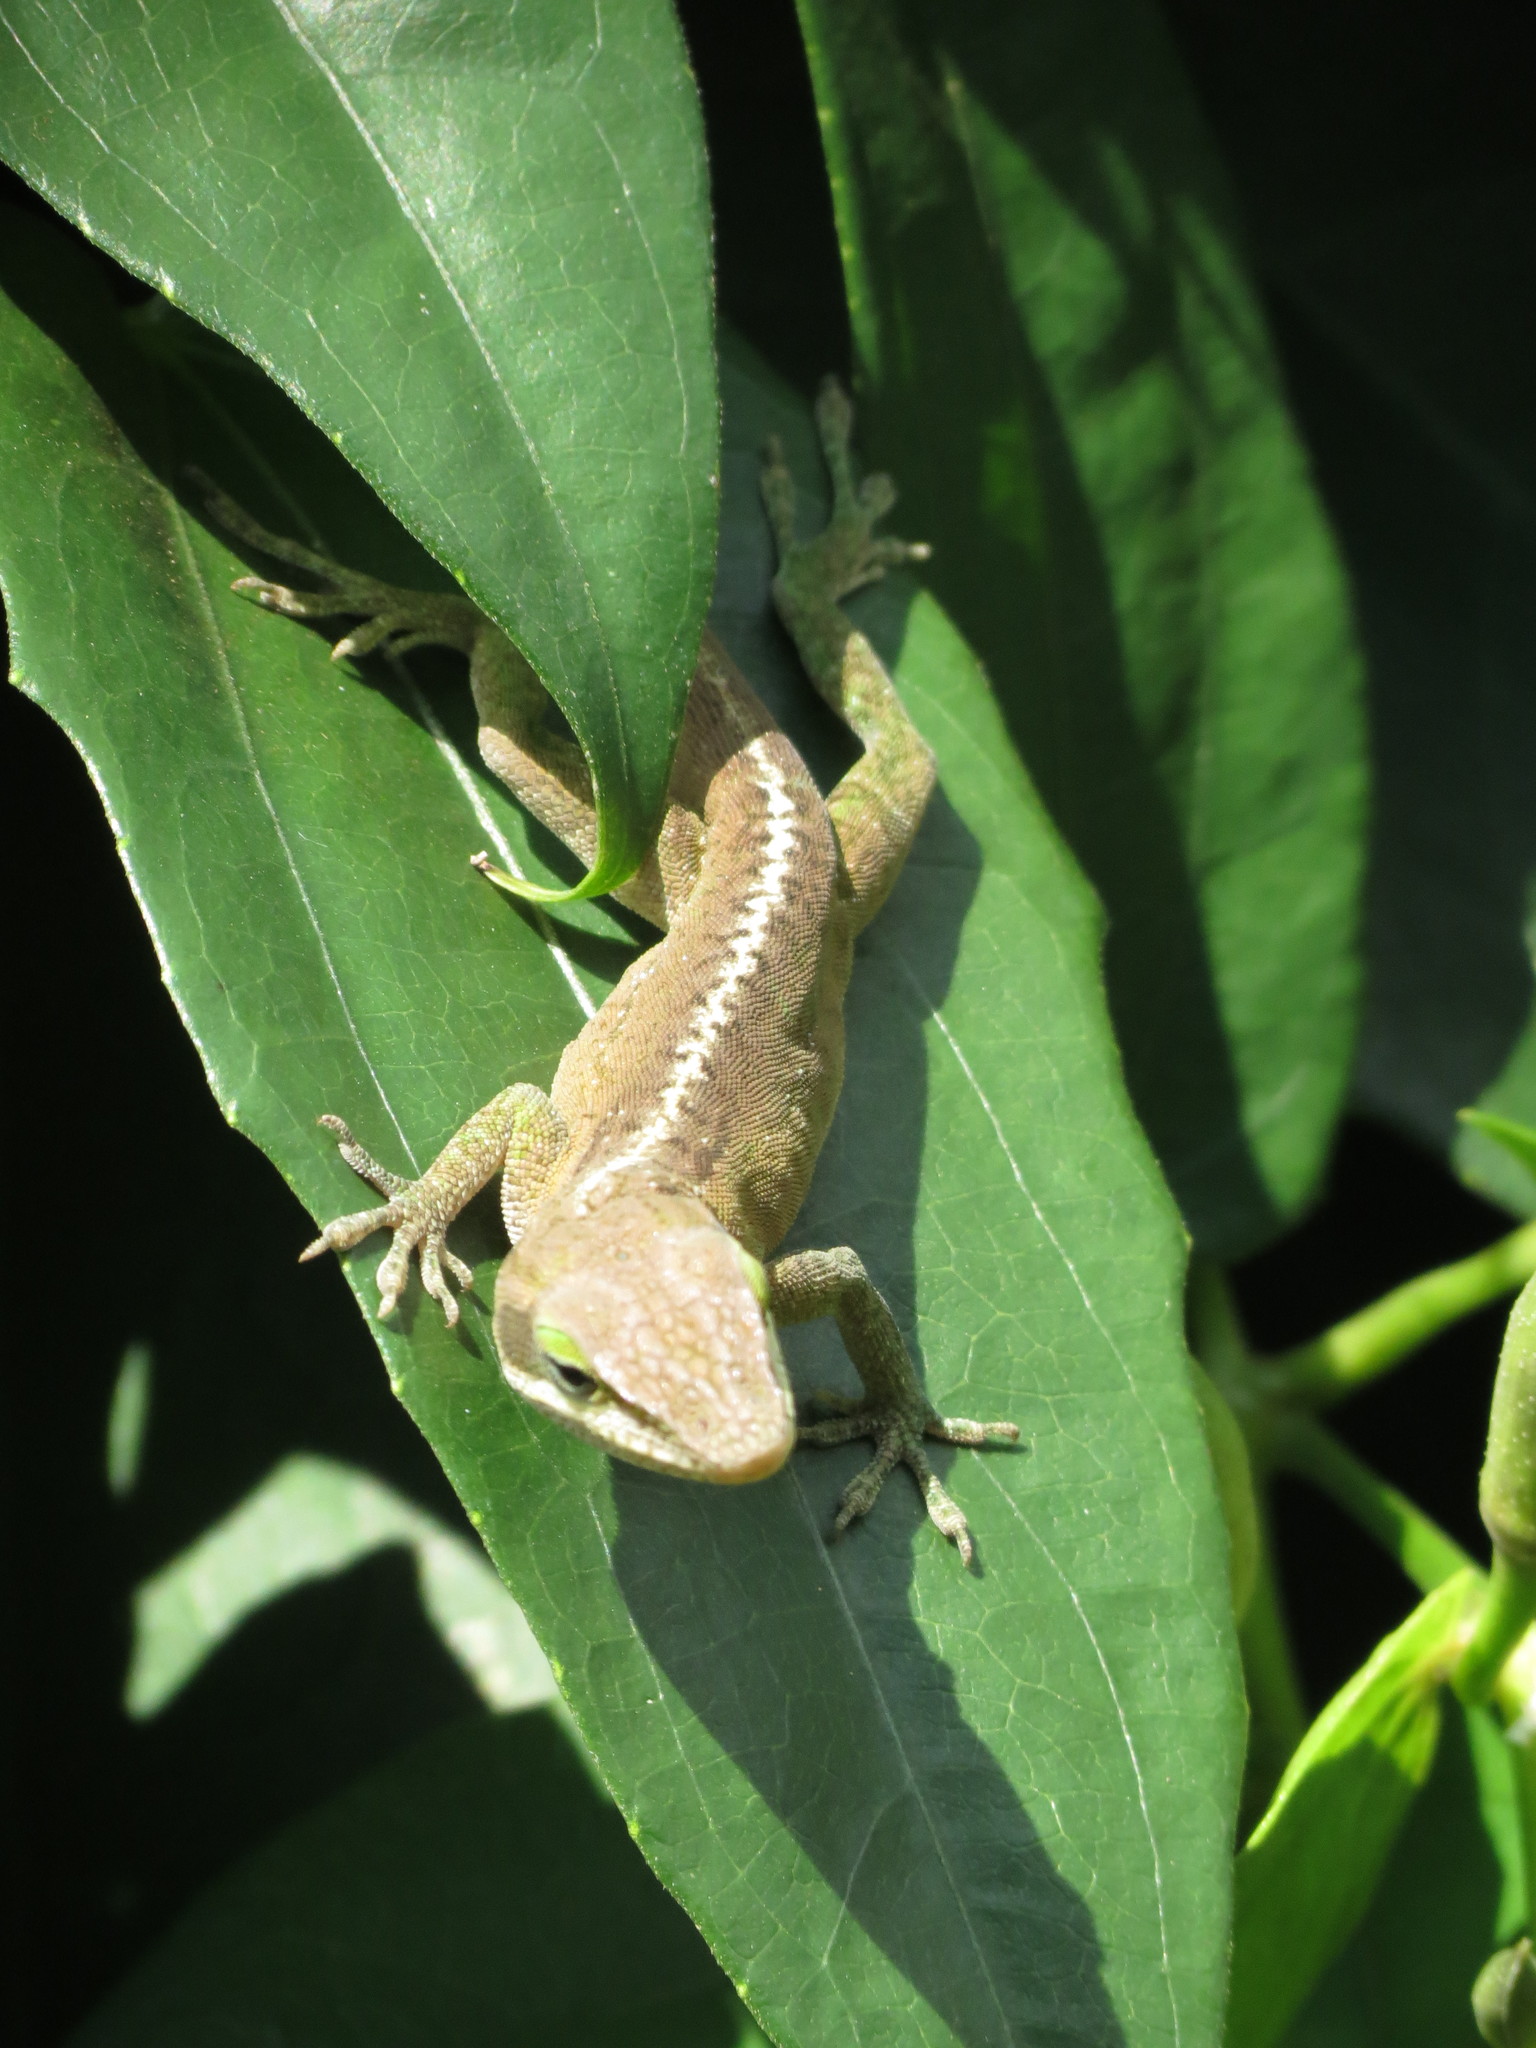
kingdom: Animalia
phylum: Chordata
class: Squamata
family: Dactyloidae
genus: Anolis
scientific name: Anolis carolinensis
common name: Green anole
